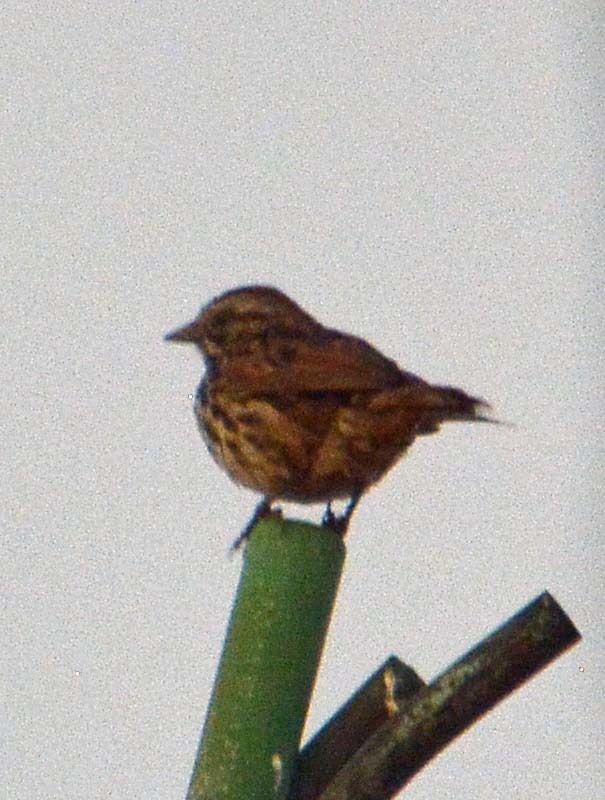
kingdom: Animalia
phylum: Chordata
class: Aves
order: Passeriformes
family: Passerellidae
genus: Melospiza
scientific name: Melospiza melodia
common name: Song sparrow
